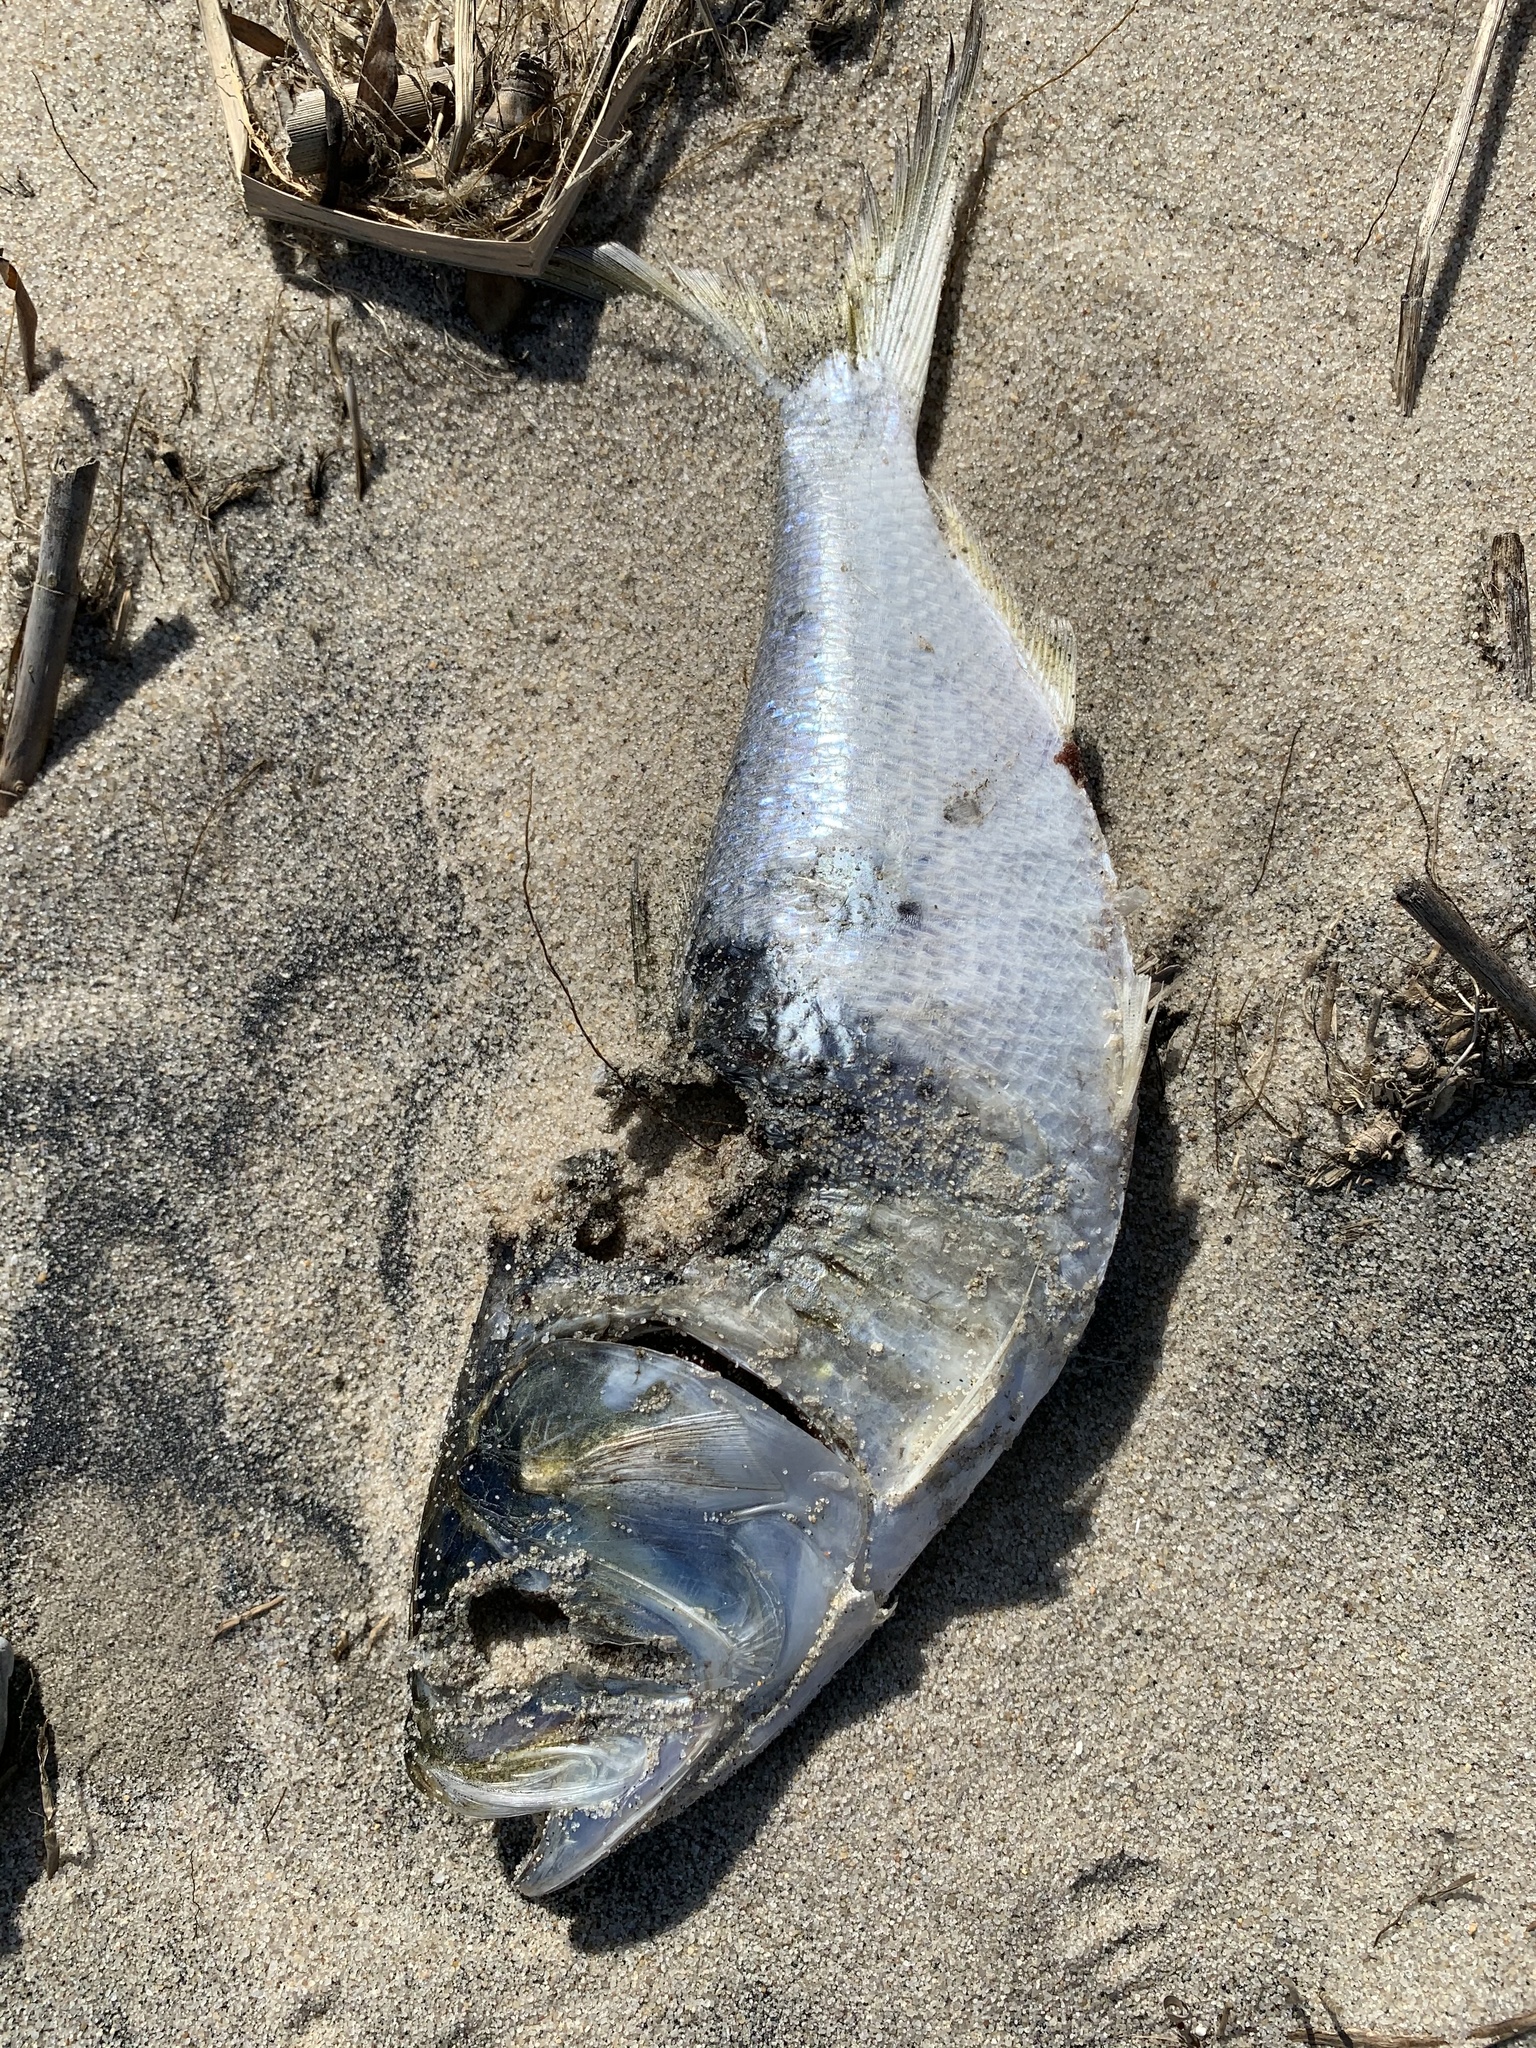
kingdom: Animalia
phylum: Chordata
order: Clupeiformes
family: Clupeidae
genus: Brevoortia
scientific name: Brevoortia tyrannus
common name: Atlantic menhaden
